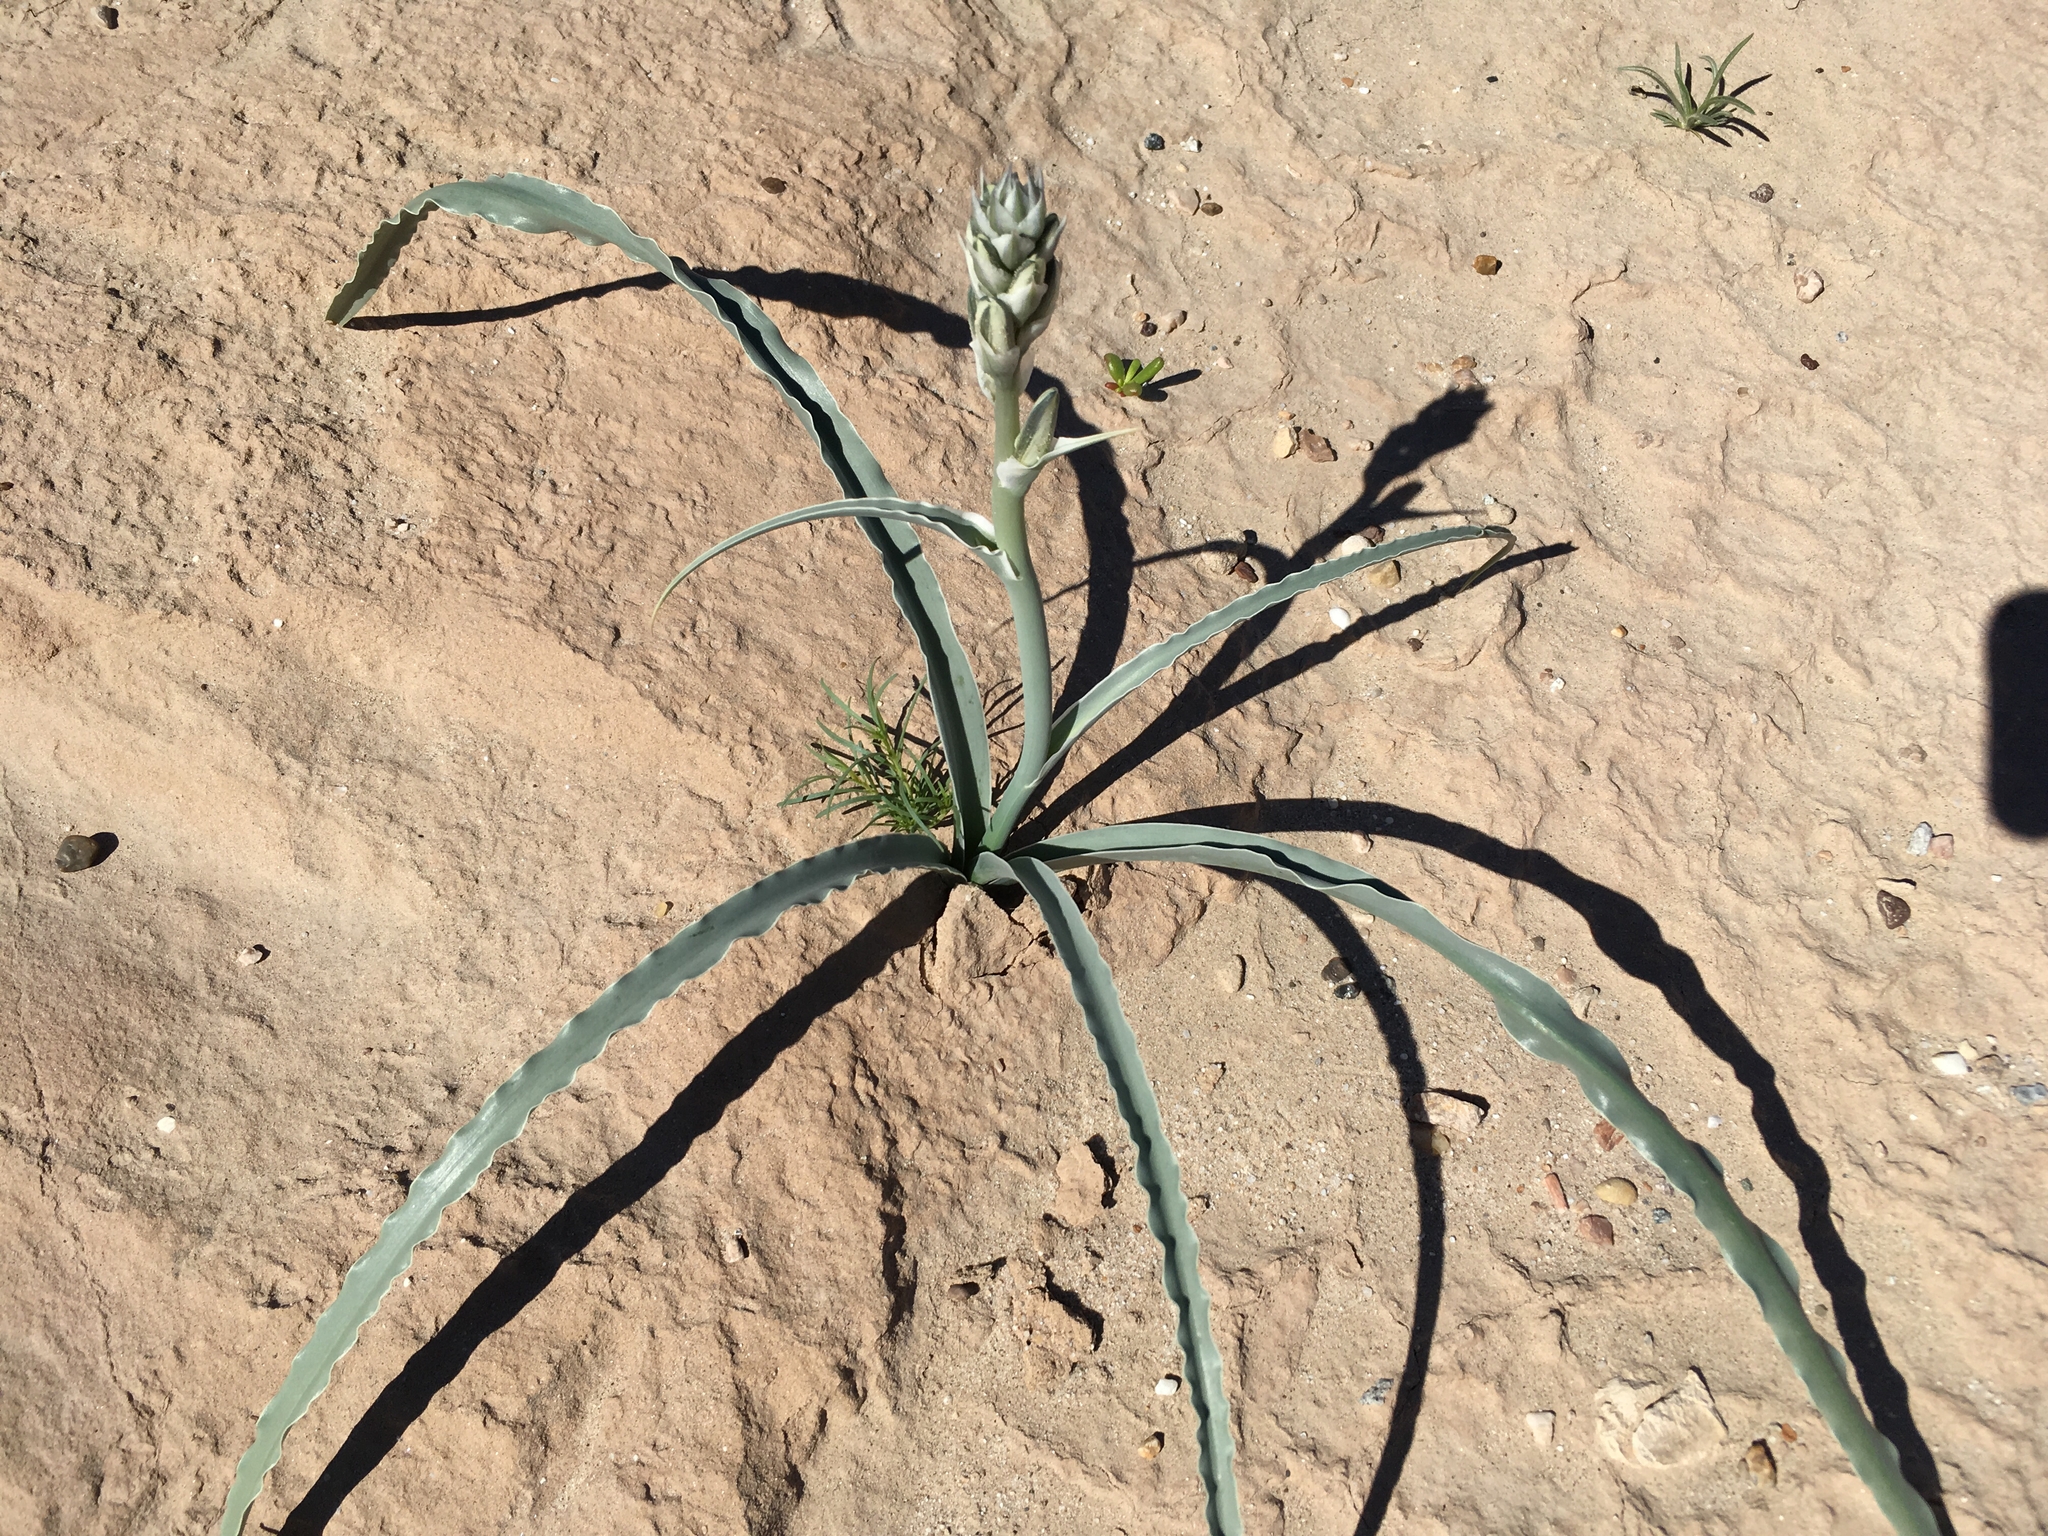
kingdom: Plantae
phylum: Tracheophyta
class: Liliopsida
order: Asparagales
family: Asparagaceae
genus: Hesperocallis
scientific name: Hesperocallis undulata
